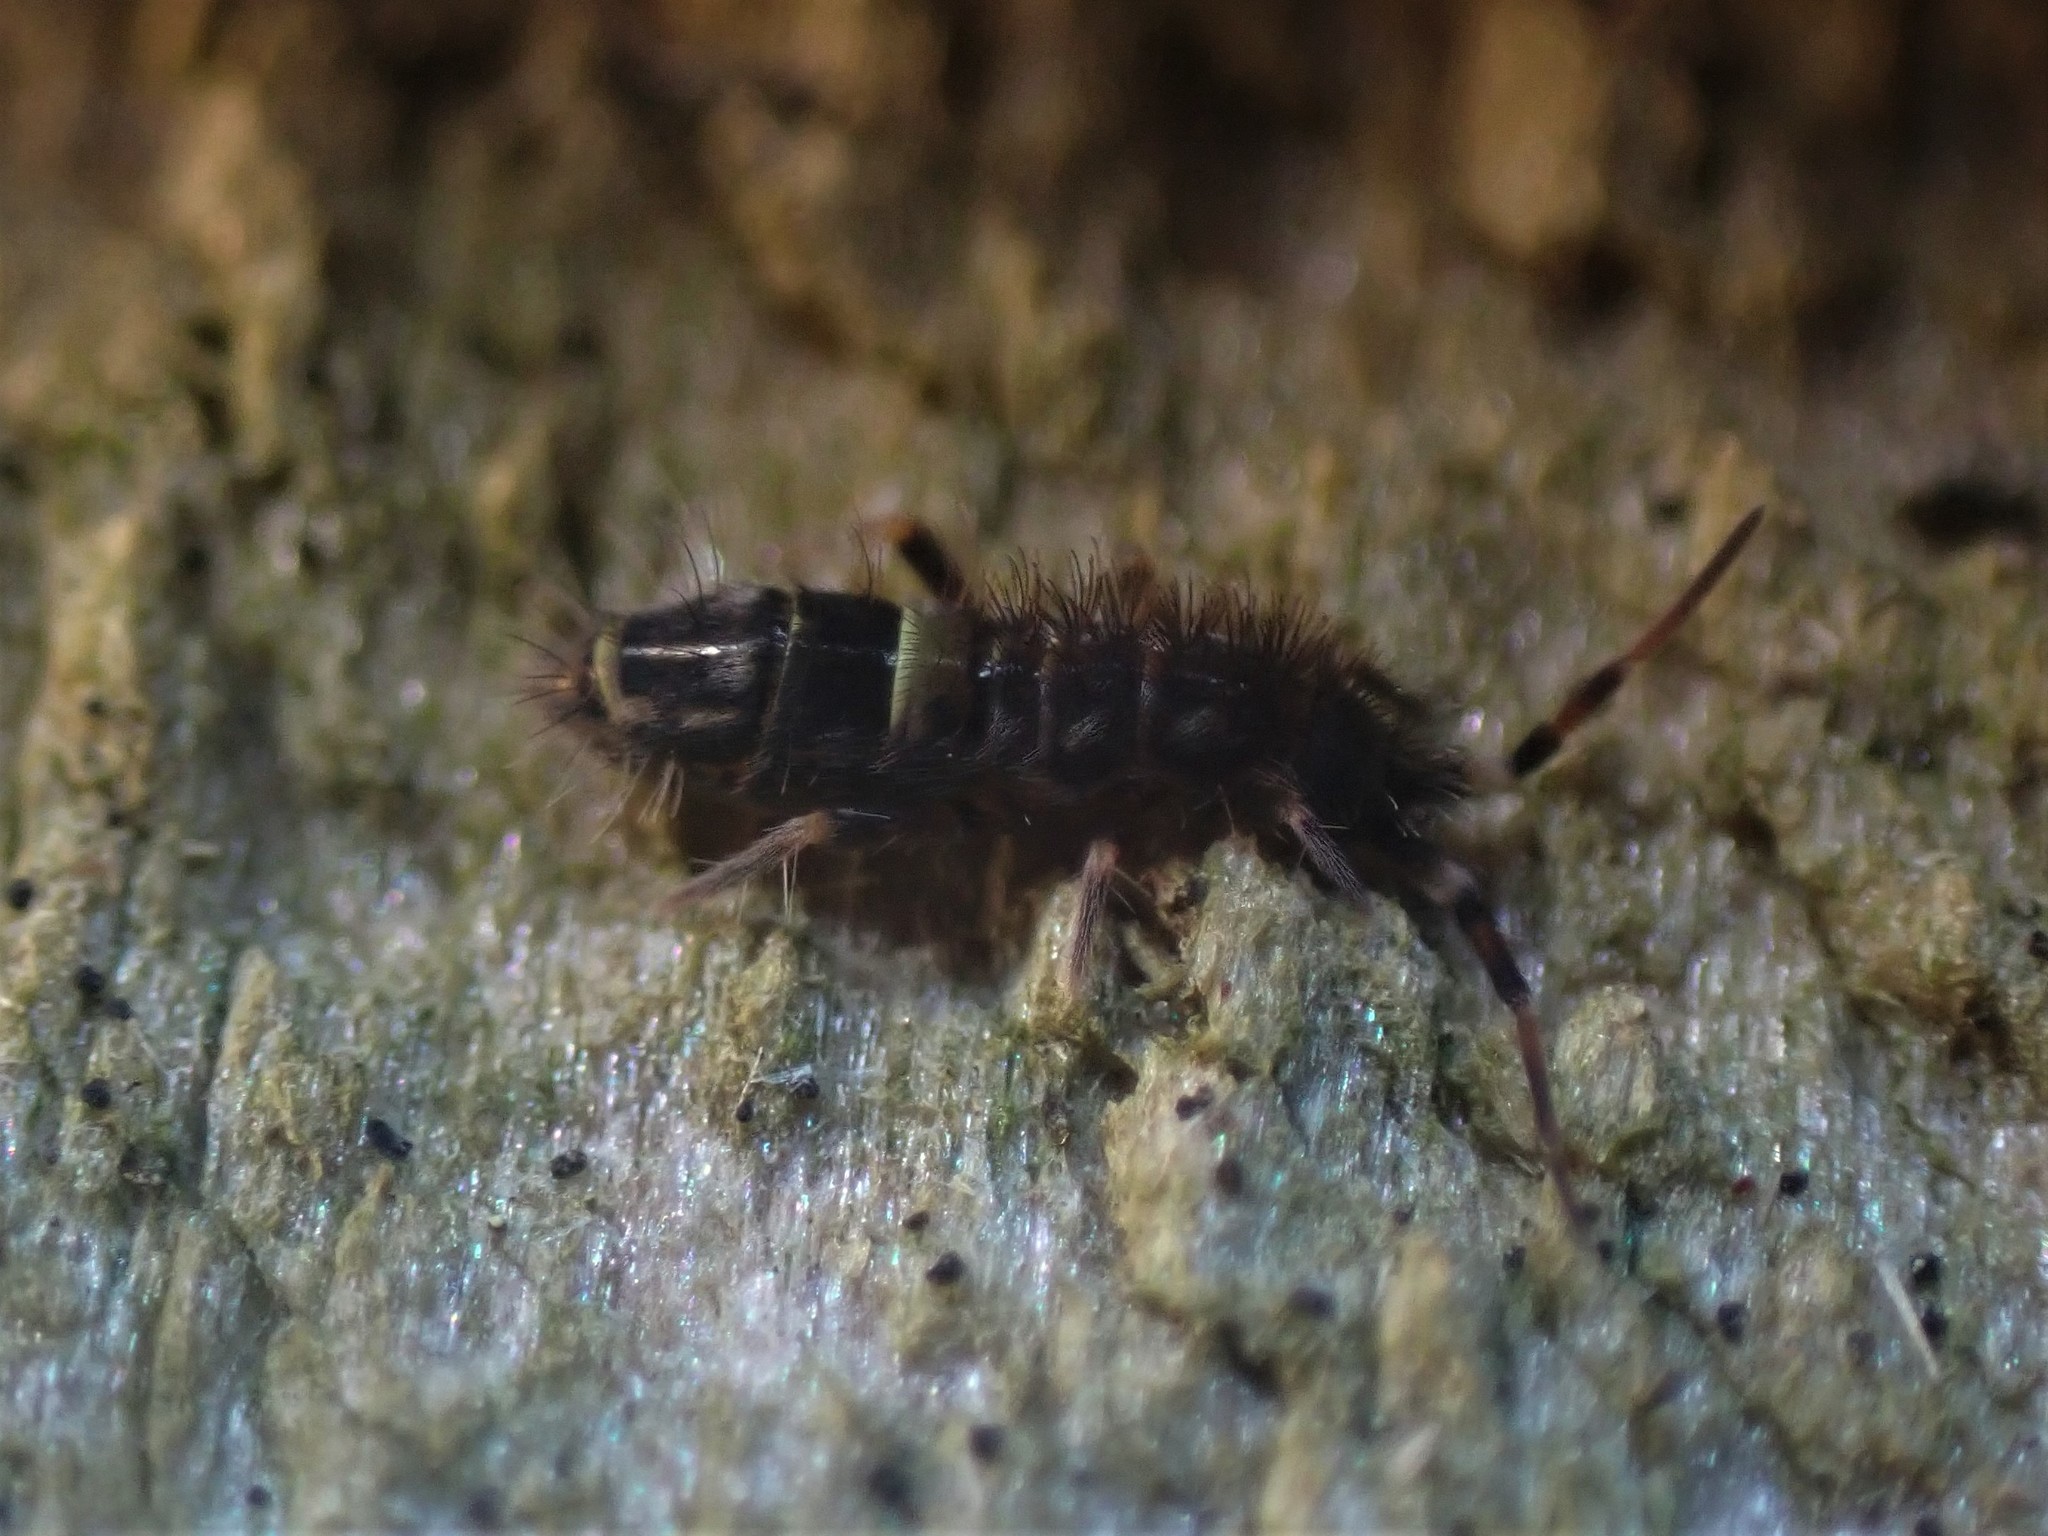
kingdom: Animalia
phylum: Arthropoda
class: Collembola
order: Entomobryomorpha
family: Orchesellidae
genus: Orchesella
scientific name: Orchesella cincta
